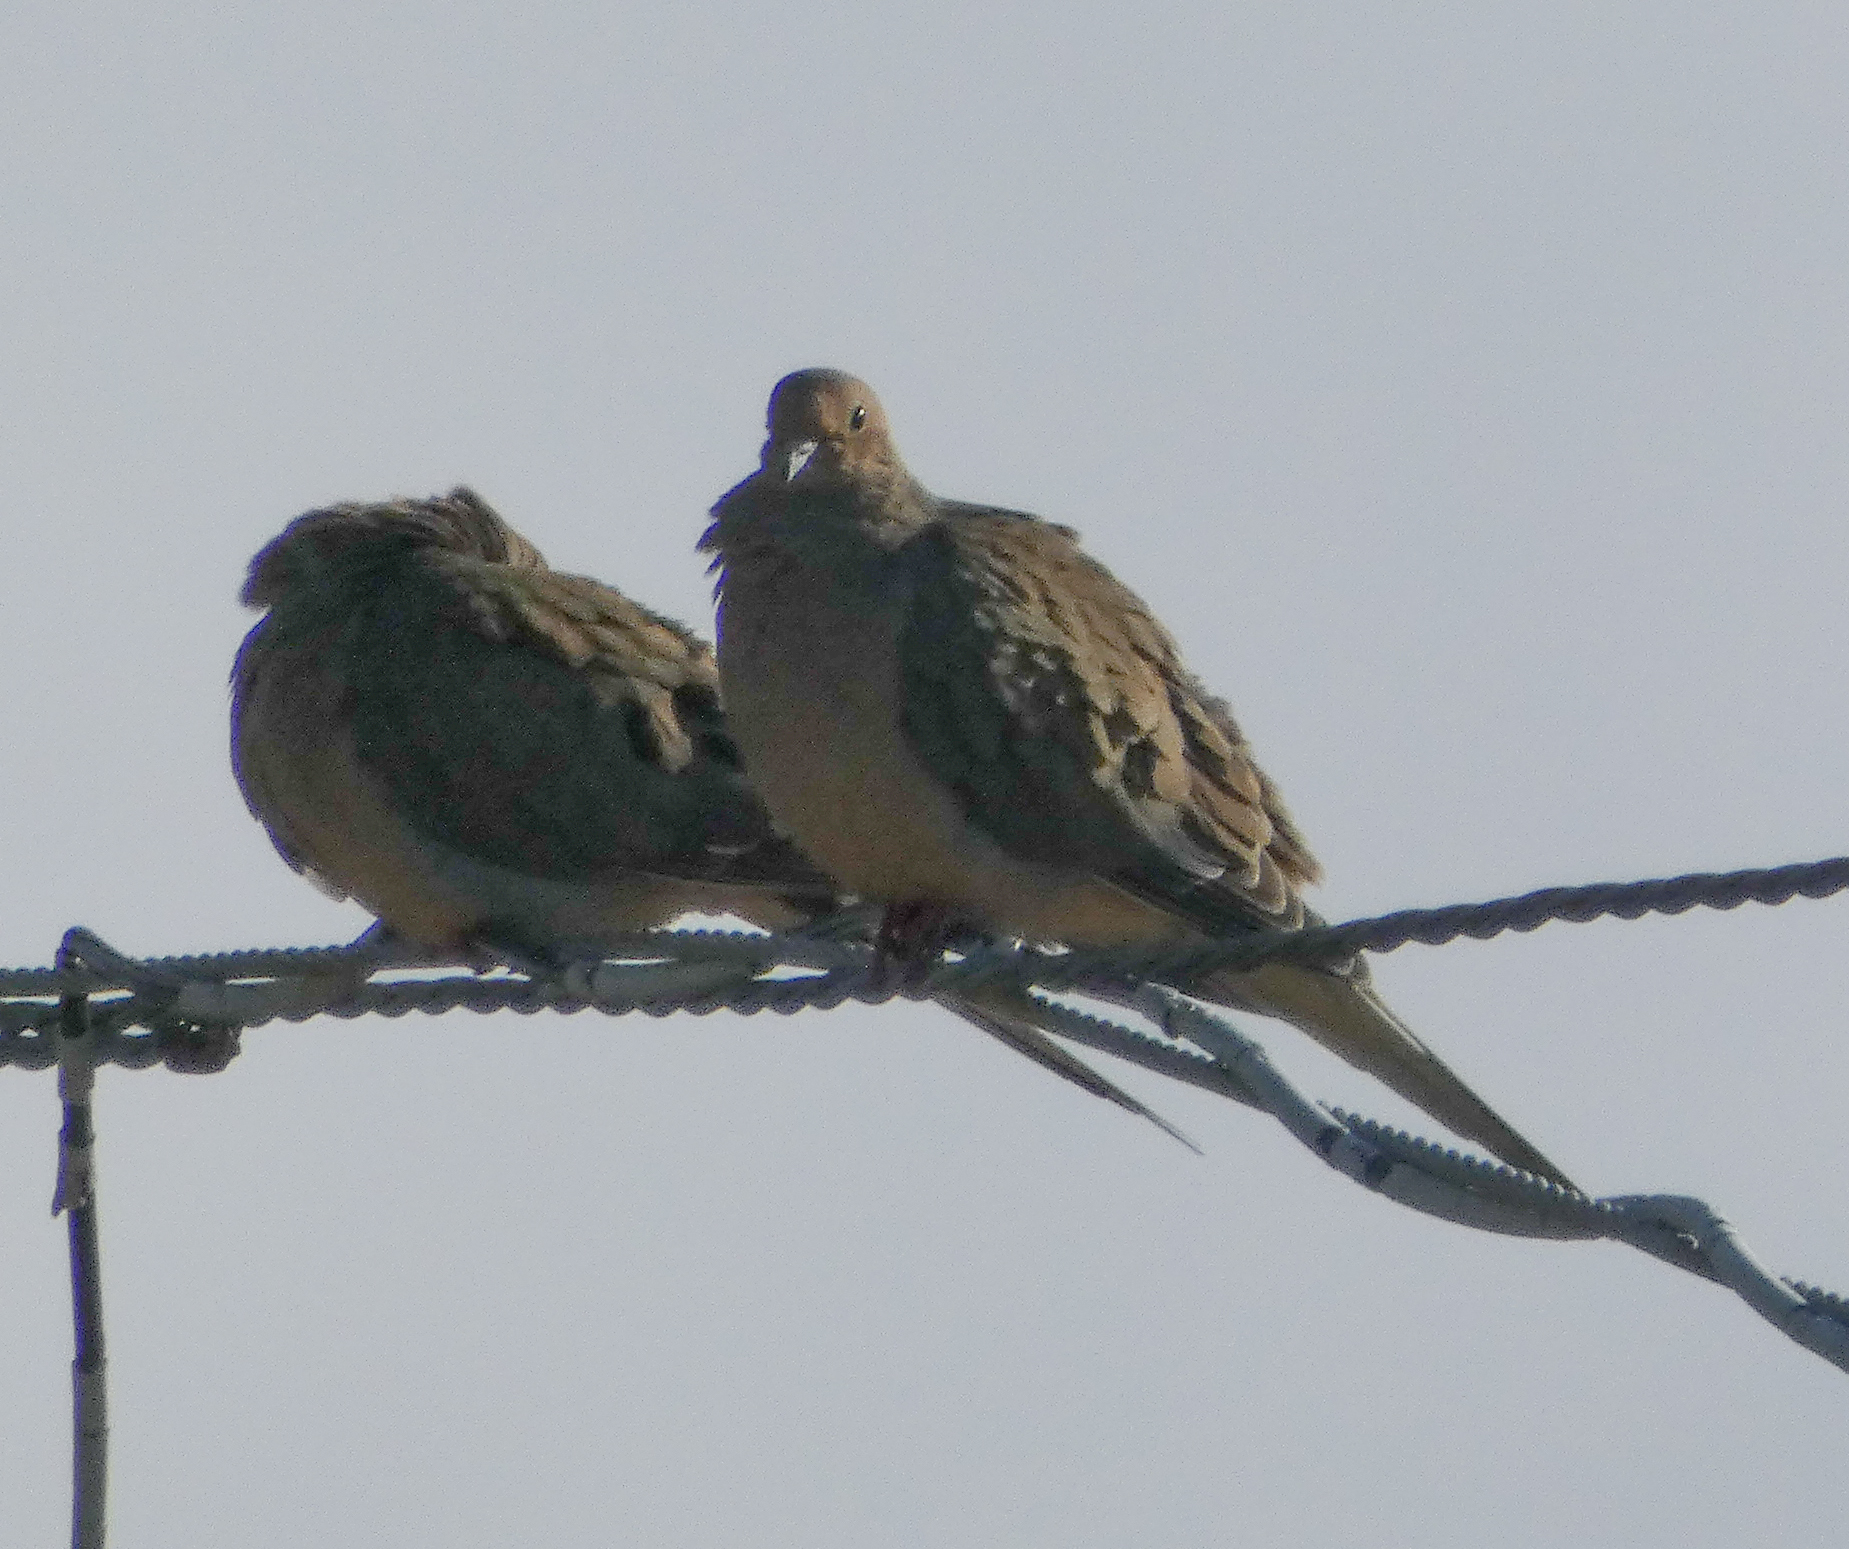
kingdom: Animalia
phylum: Chordata
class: Aves
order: Columbiformes
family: Columbidae
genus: Zenaida
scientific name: Zenaida macroura
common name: Mourning dove
